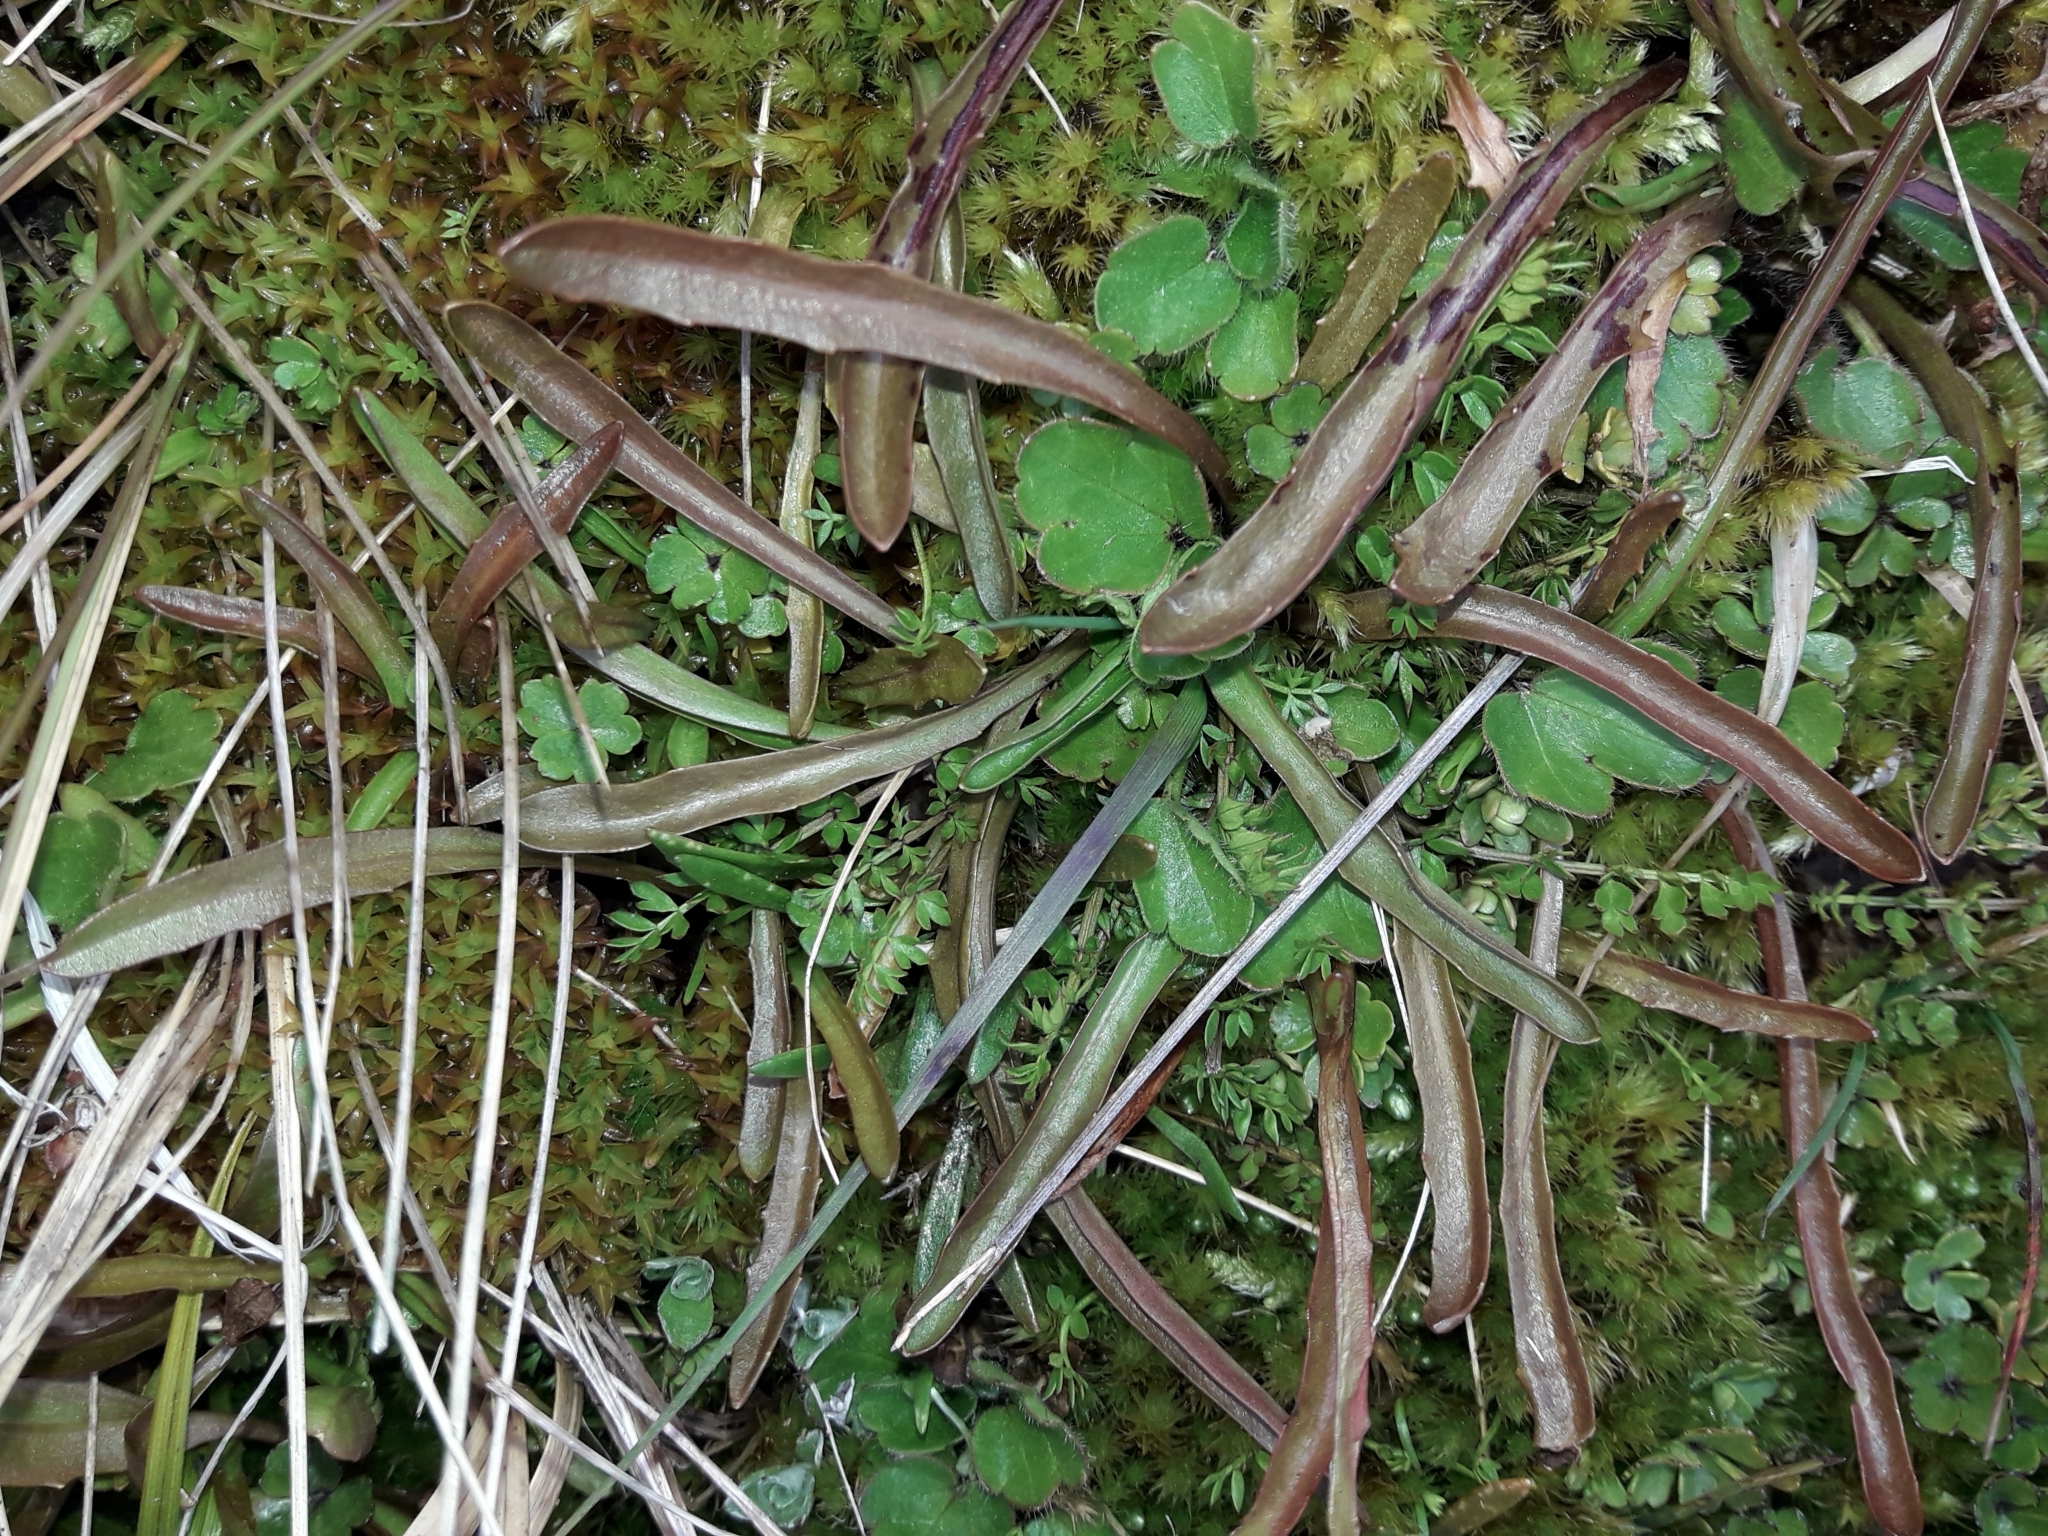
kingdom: Plantae
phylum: Tracheophyta
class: Magnoliopsida
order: Asterales
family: Asteraceae
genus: Microseris
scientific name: Microseris scapigera
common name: Yam daisy
